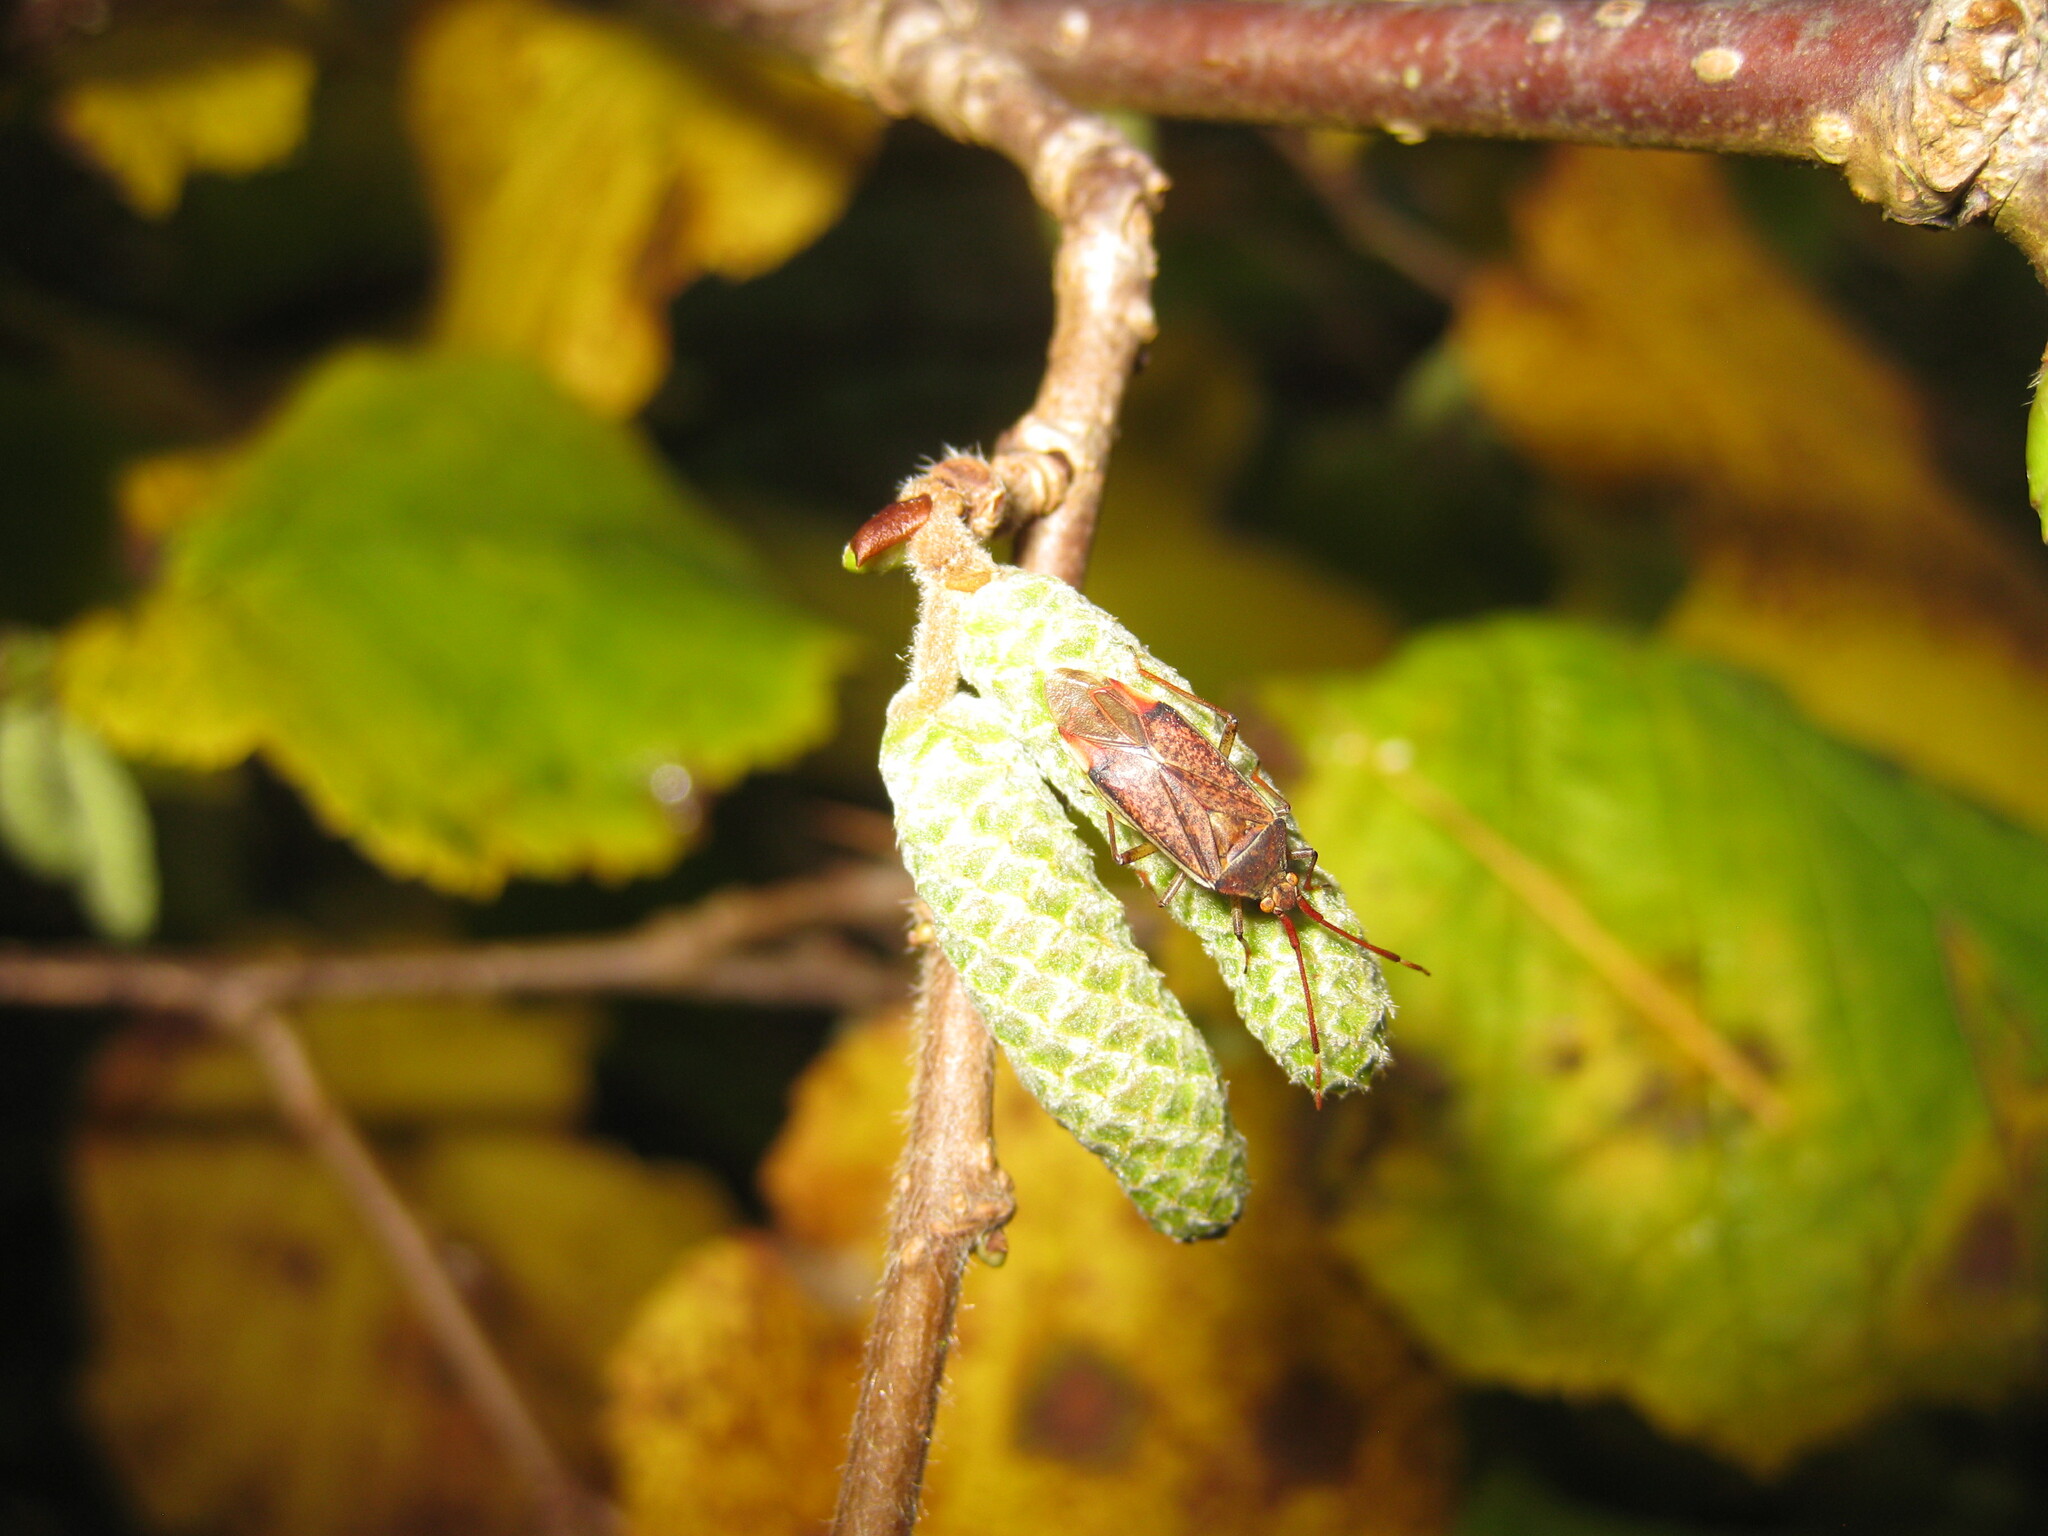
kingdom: Animalia
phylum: Arthropoda
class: Insecta
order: Hemiptera
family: Miridae
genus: Pantilius
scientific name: Pantilius tunicatus
